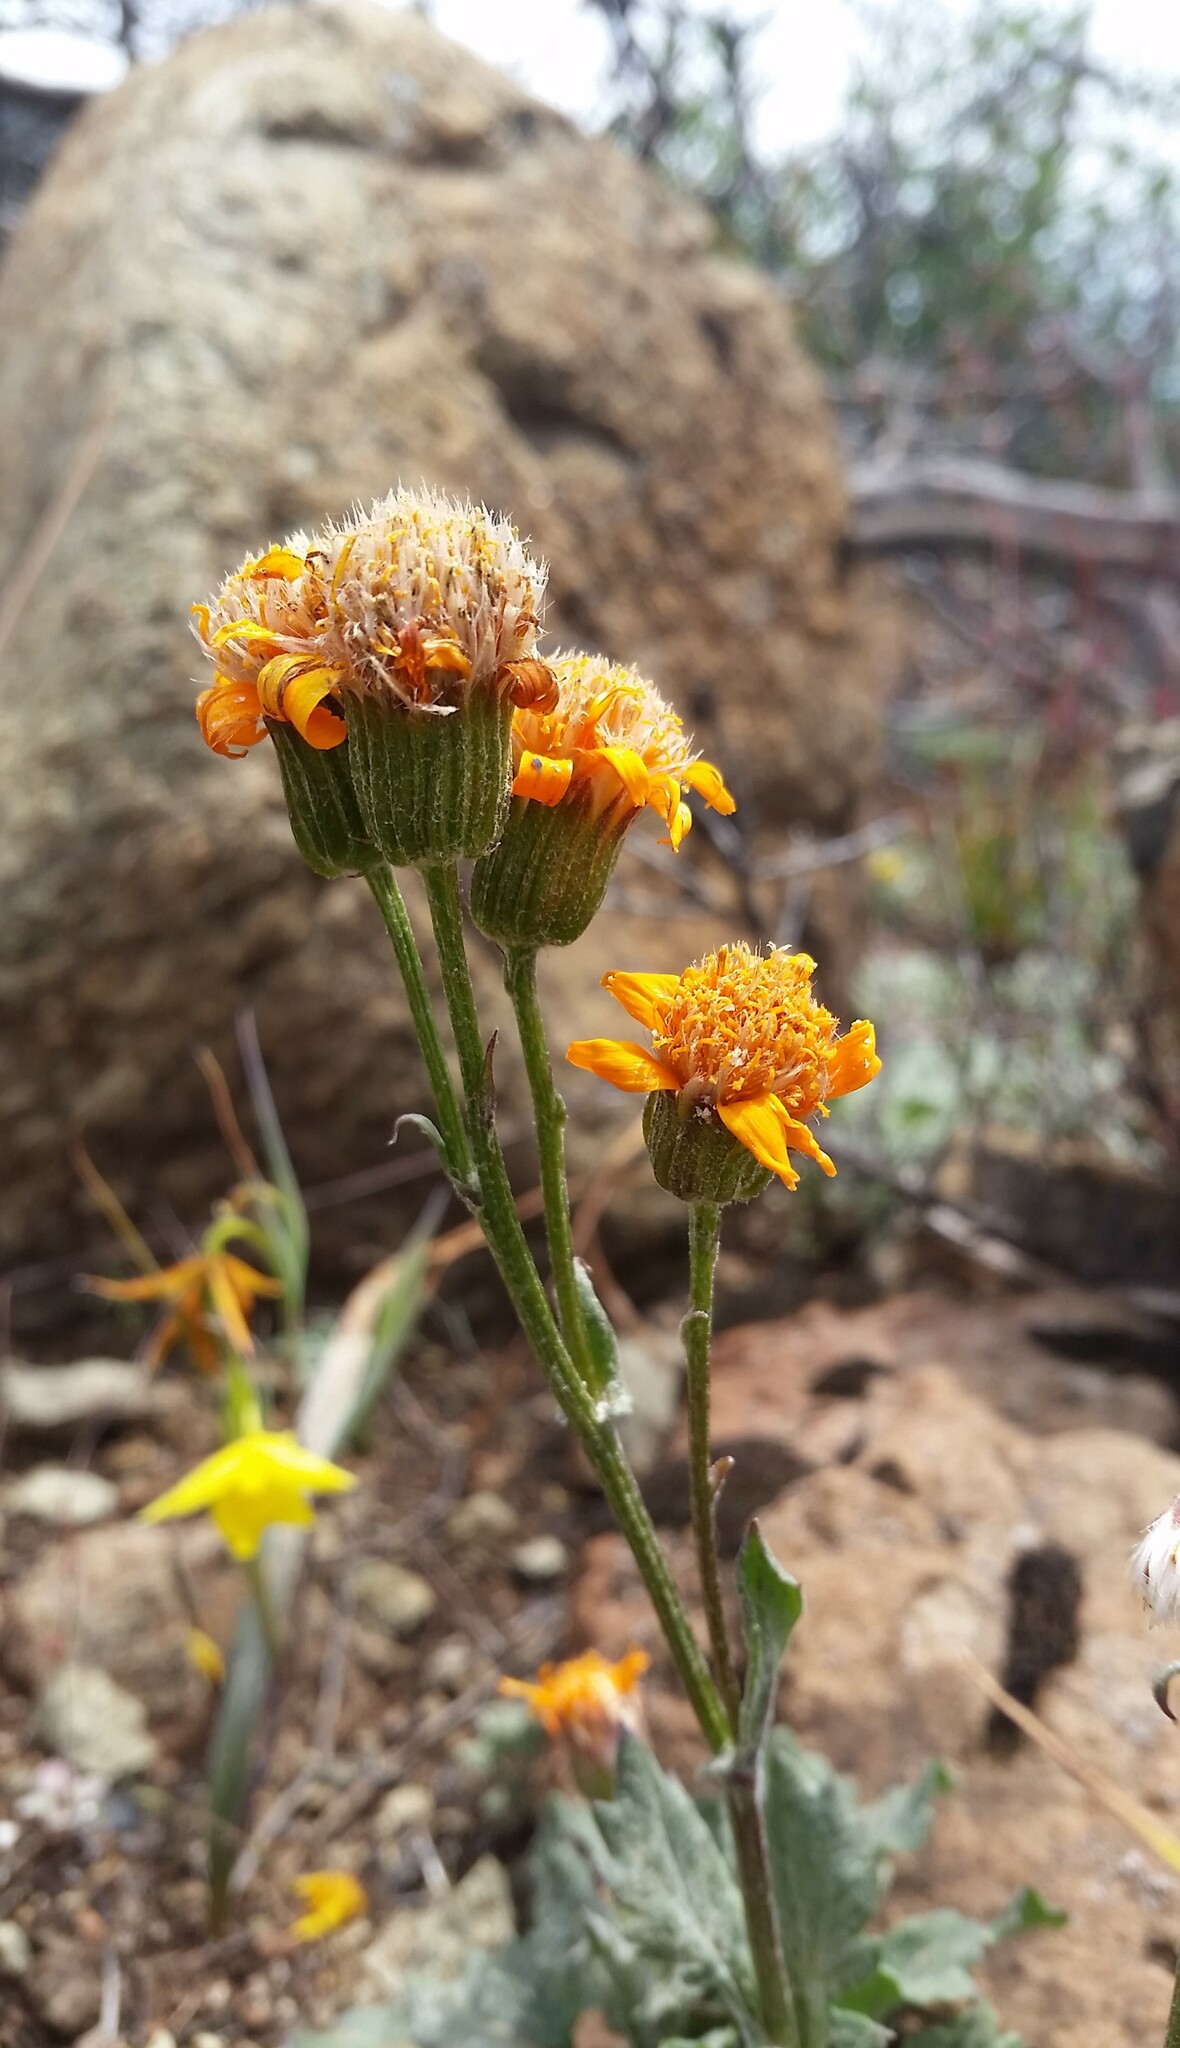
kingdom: Plantae
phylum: Tracheophyta
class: Magnoliopsida
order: Asterales
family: Asteraceae
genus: Packera
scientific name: Packera greenei
